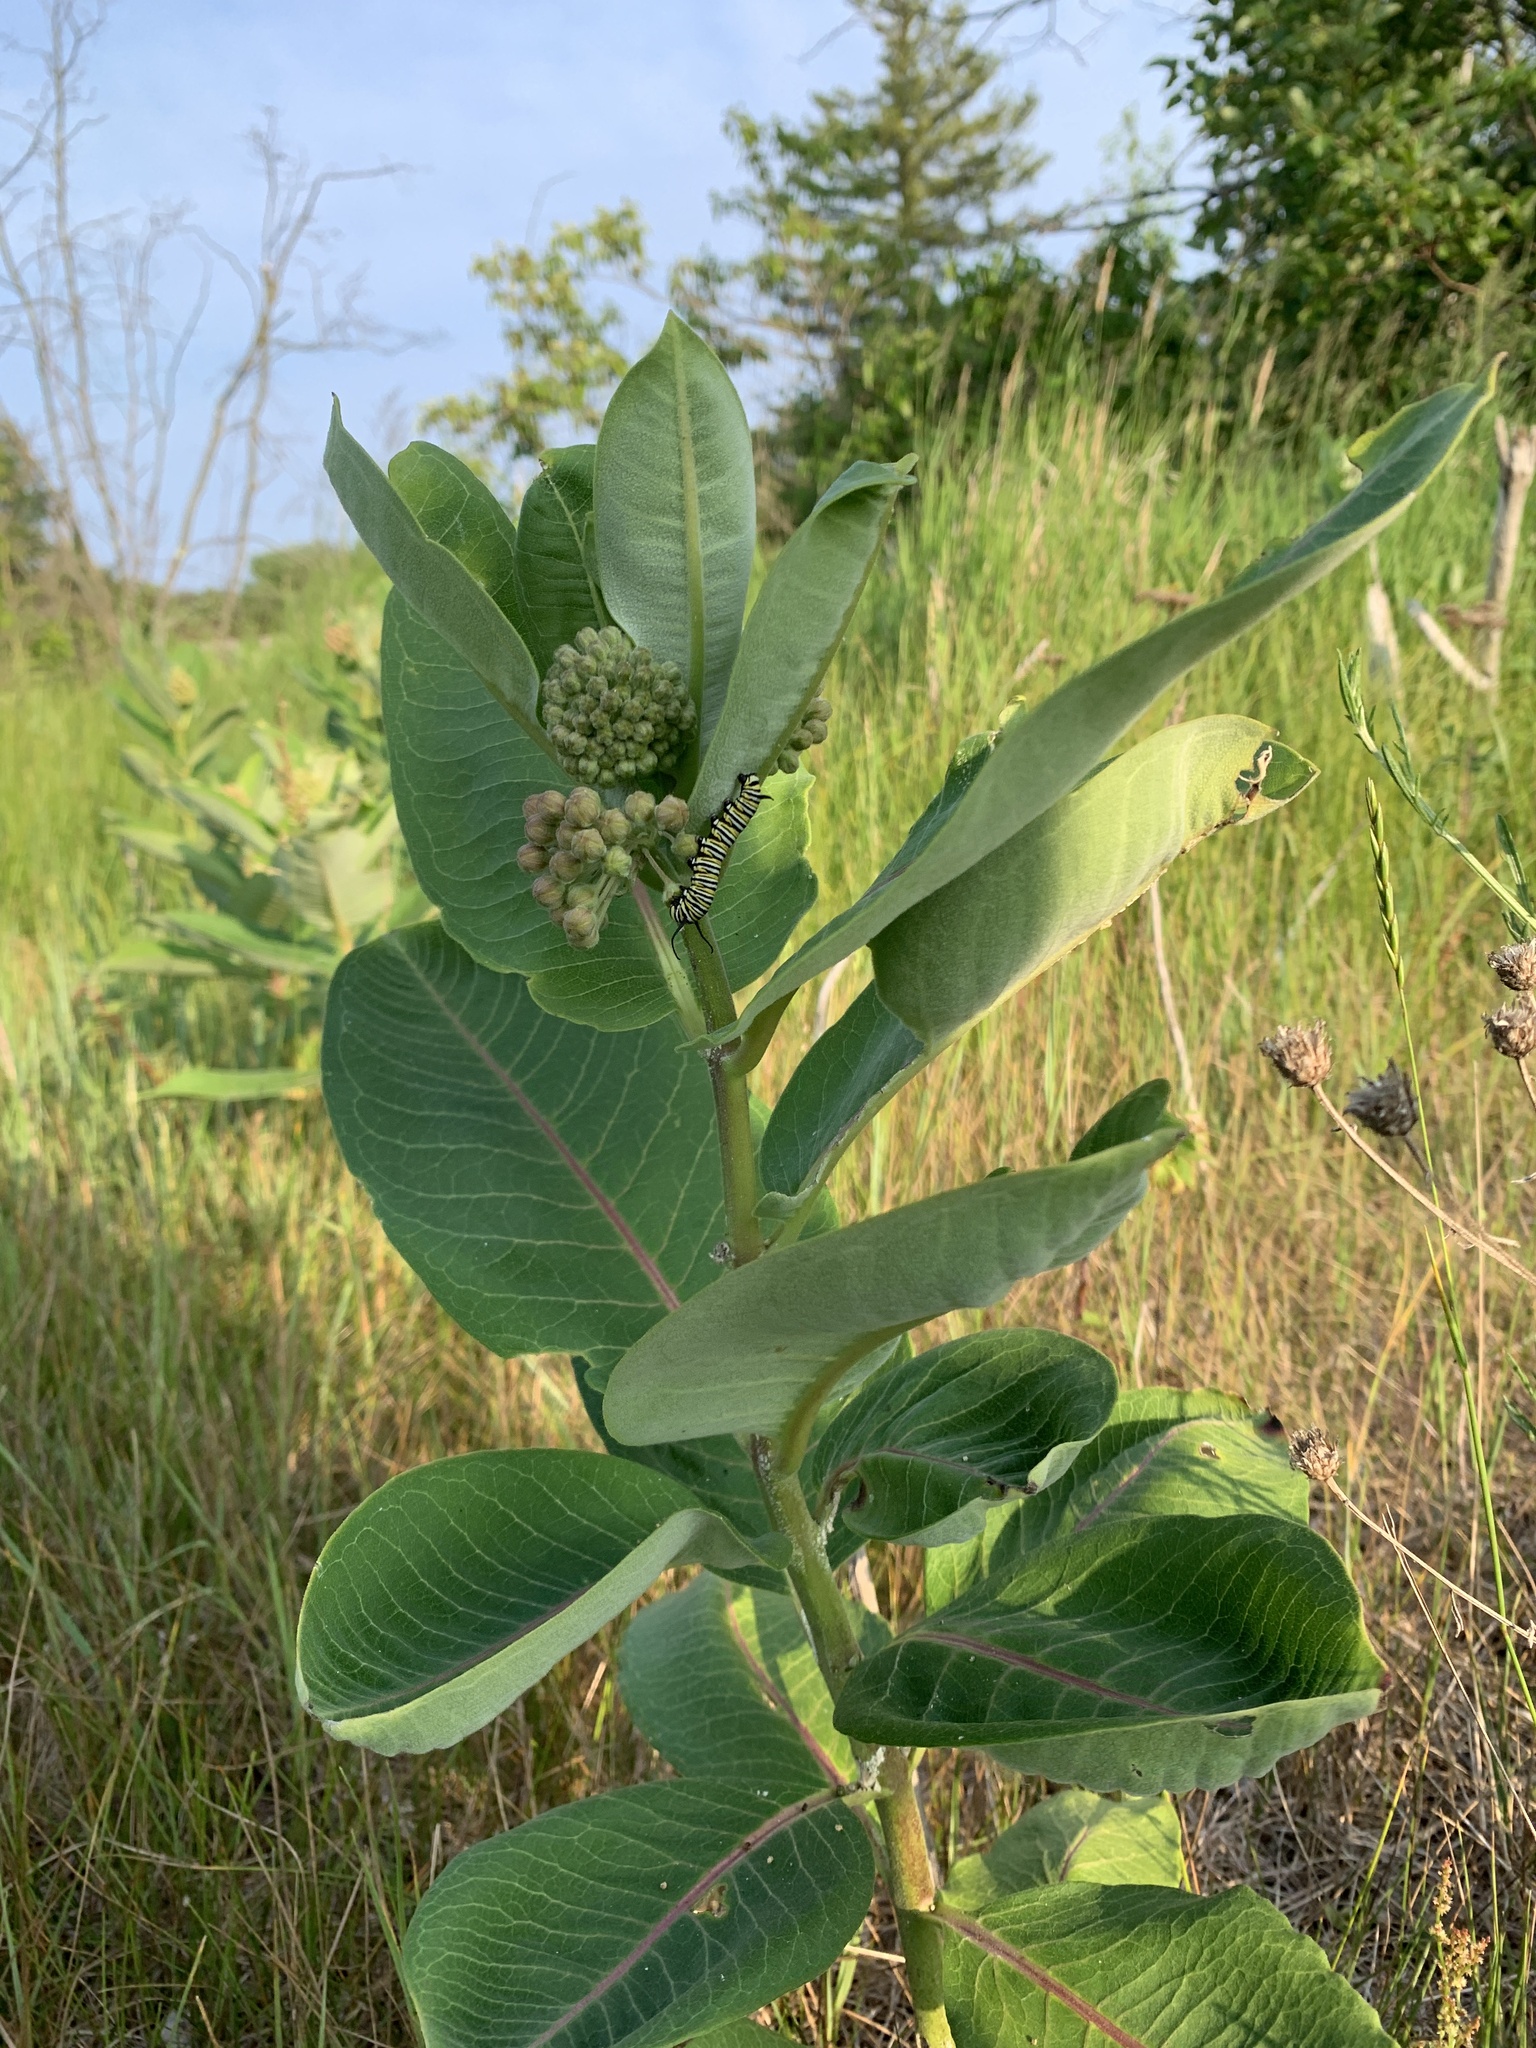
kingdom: Plantae
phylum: Tracheophyta
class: Magnoliopsida
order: Gentianales
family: Apocynaceae
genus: Asclepias
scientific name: Asclepias syriaca
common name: Common milkweed
